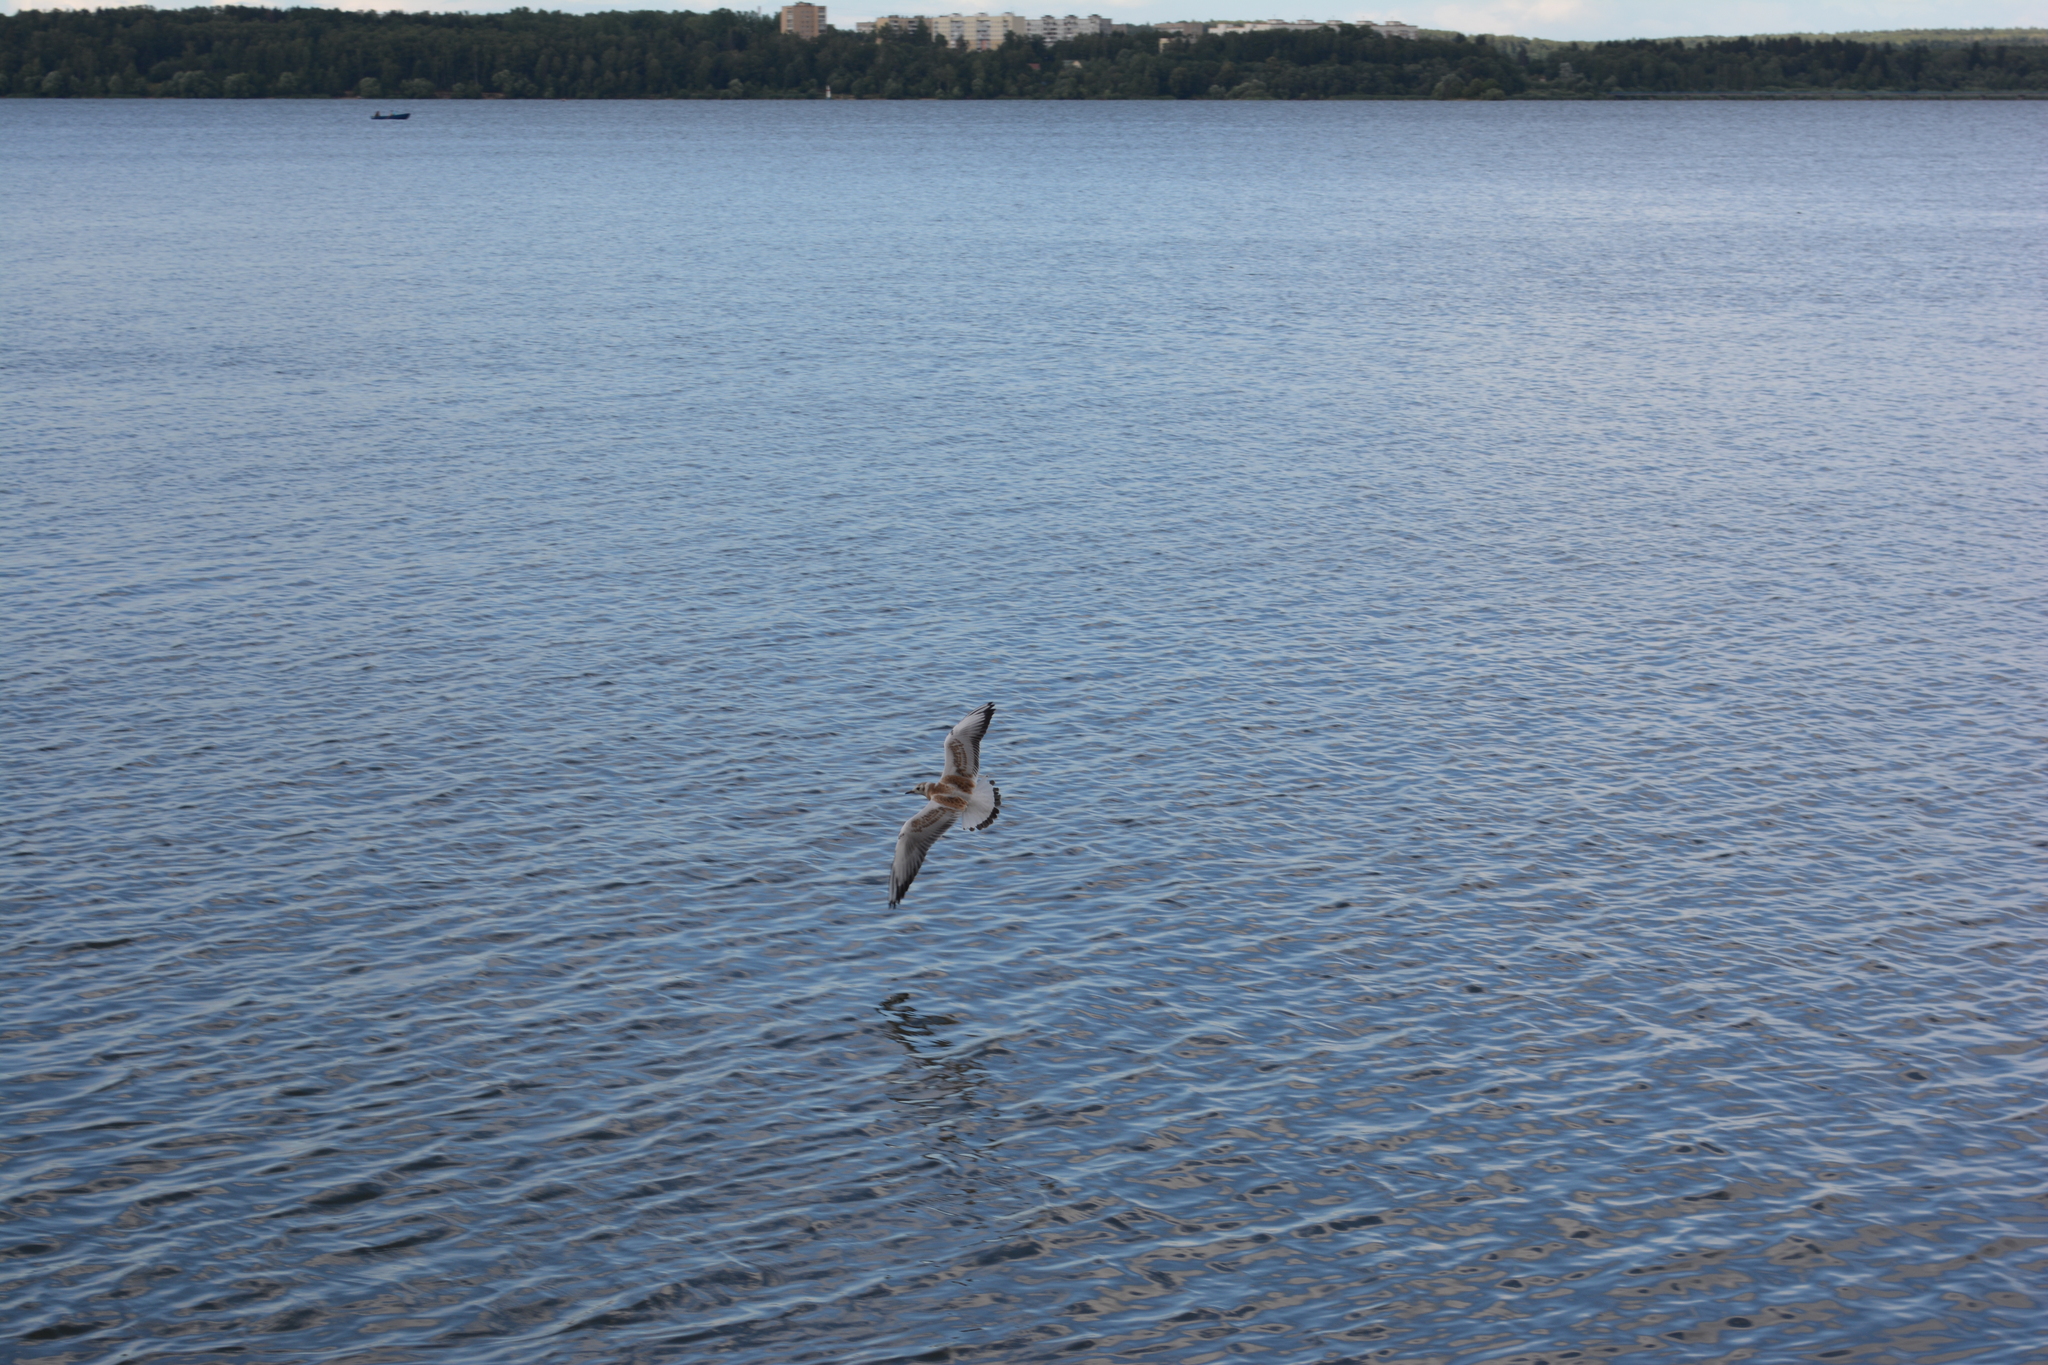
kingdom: Animalia
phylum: Chordata
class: Aves
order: Charadriiformes
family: Laridae
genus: Chroicocephalus
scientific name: Chroicocephalus ridibundus
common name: Black-headed gull
